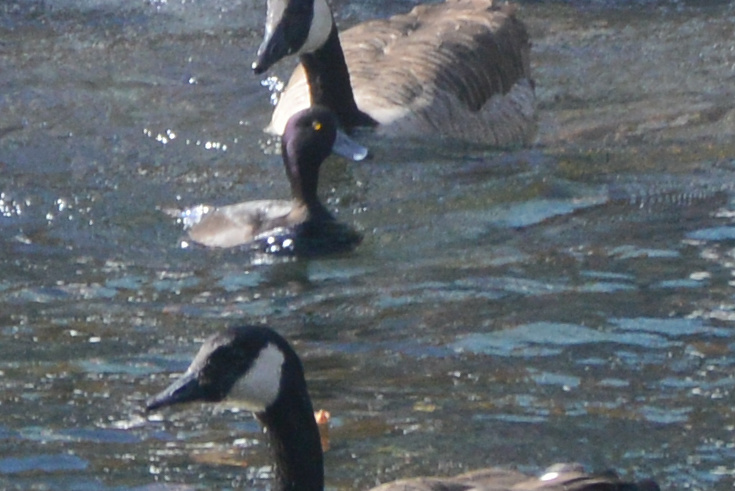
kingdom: Animalia
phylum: Chordata
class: Aves
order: Anseriformes
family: Anatidae
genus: Aythya
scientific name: Aythya novaeseelandiae
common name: New zealand scaup
